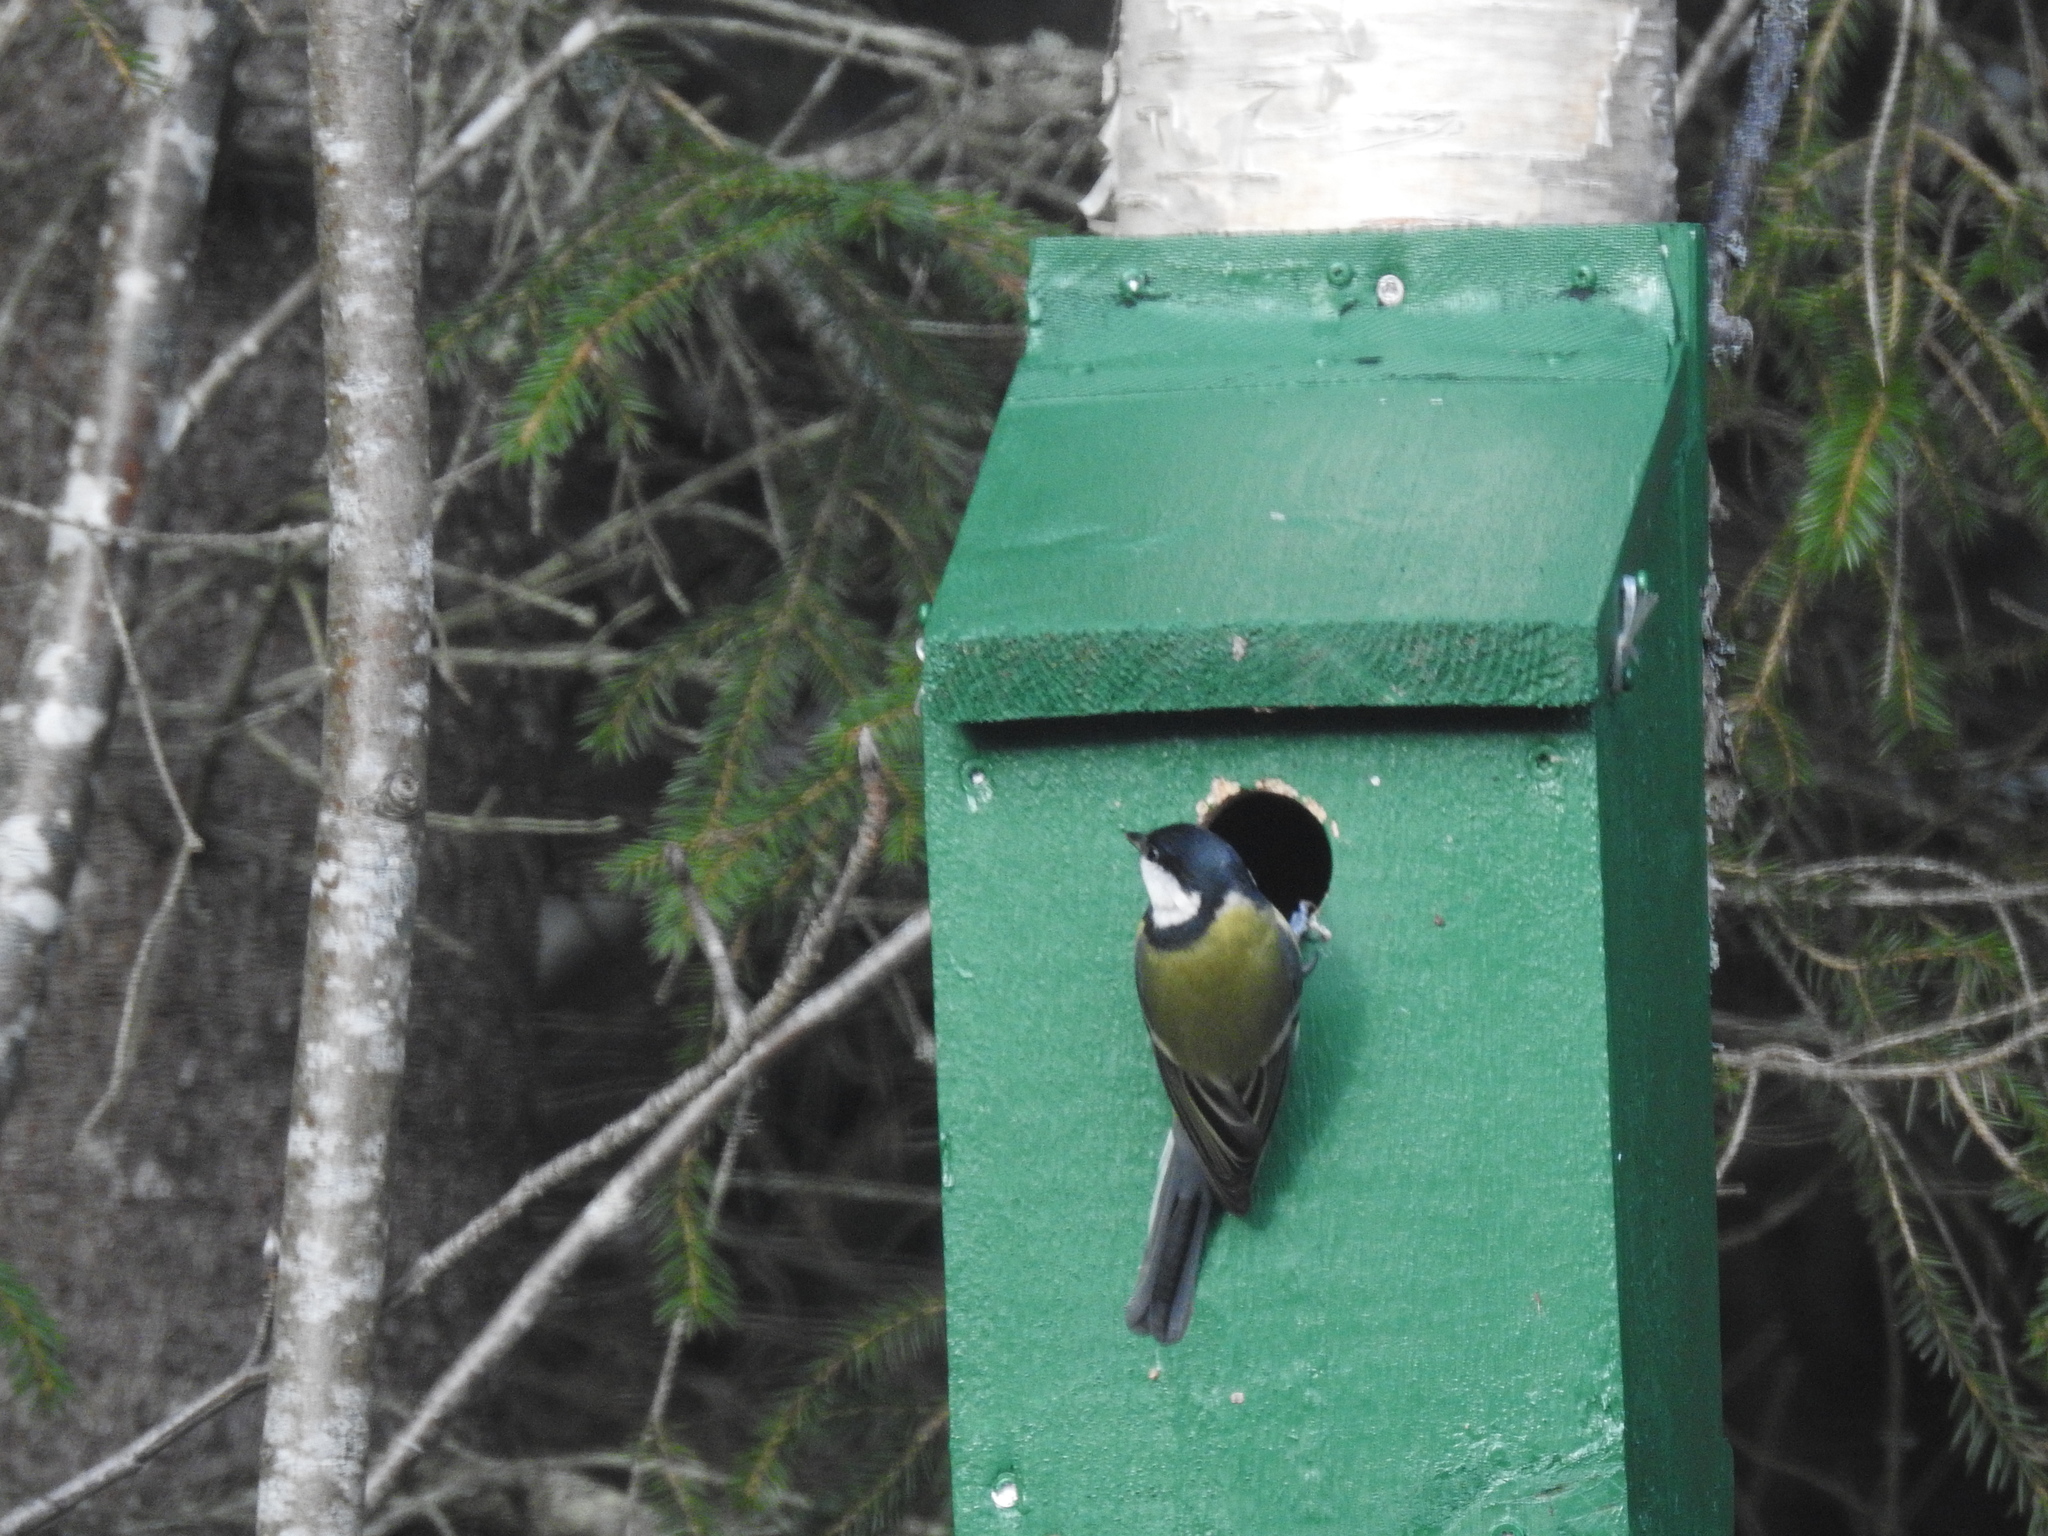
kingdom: Animalia
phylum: Chordata
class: Aves
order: Passeriformes
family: Paridae
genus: Parus
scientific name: Parus major
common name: Great tit
